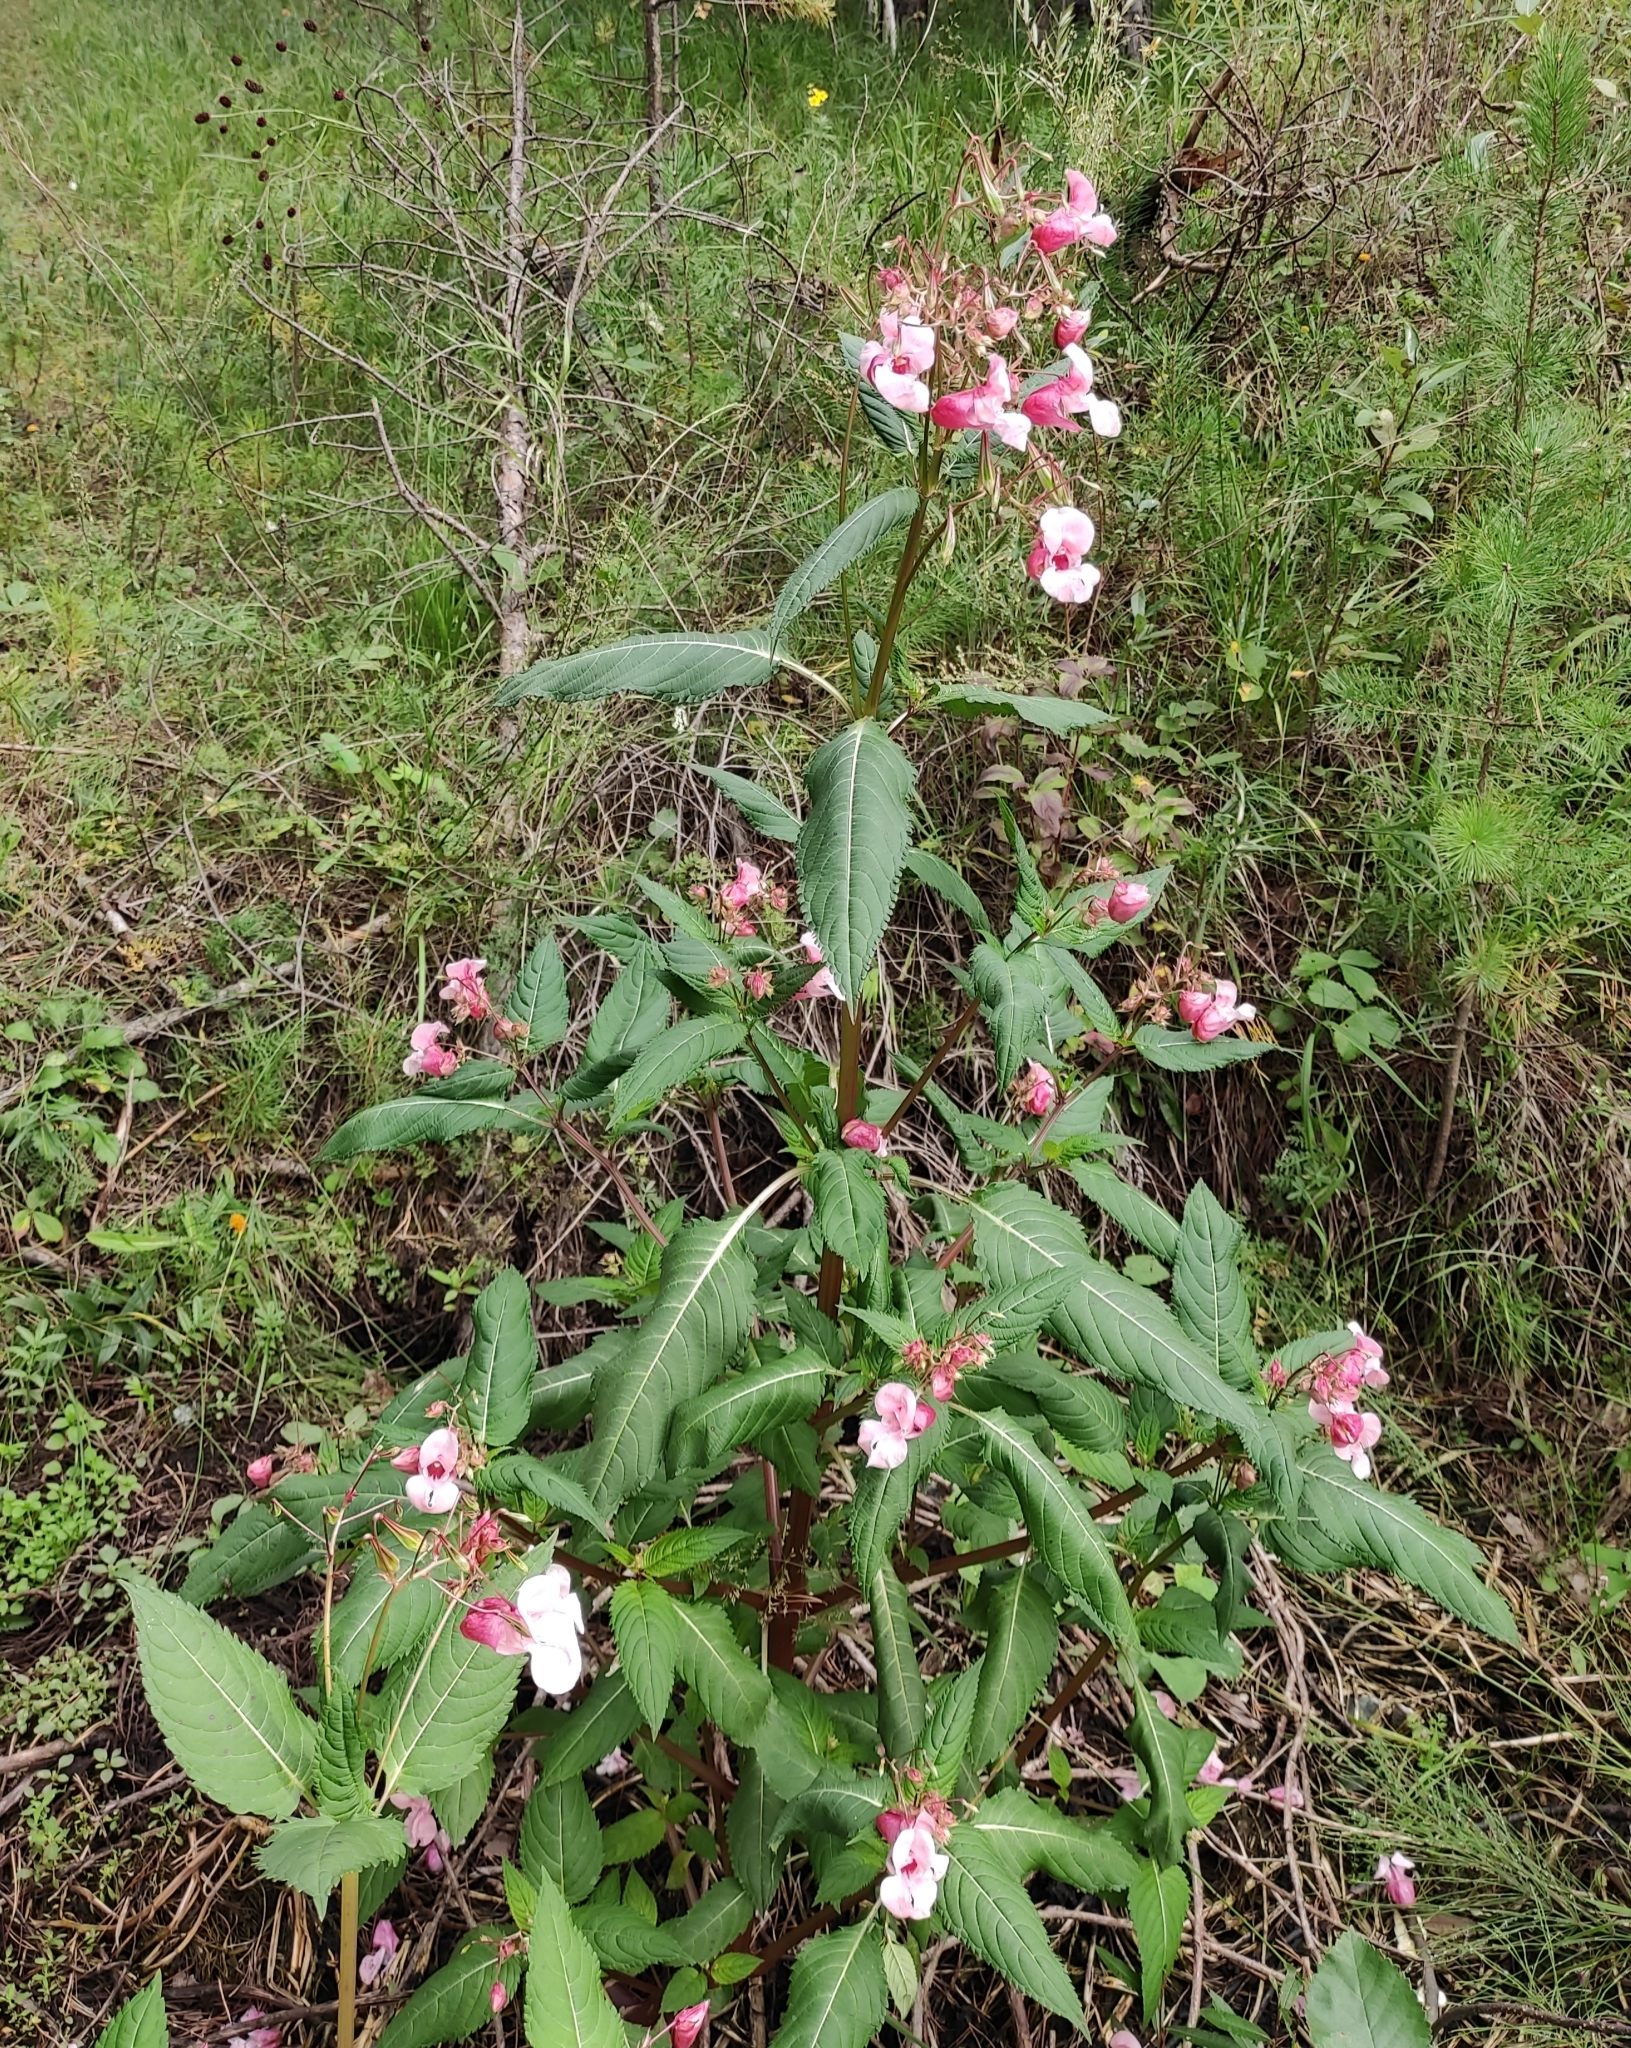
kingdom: Plantae
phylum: Tracheophyta
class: Magnoliopsida
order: Ericales
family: Balsaminaceae
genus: Impatiens
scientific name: Impatiens glandulifera
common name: Himalayan balsam
